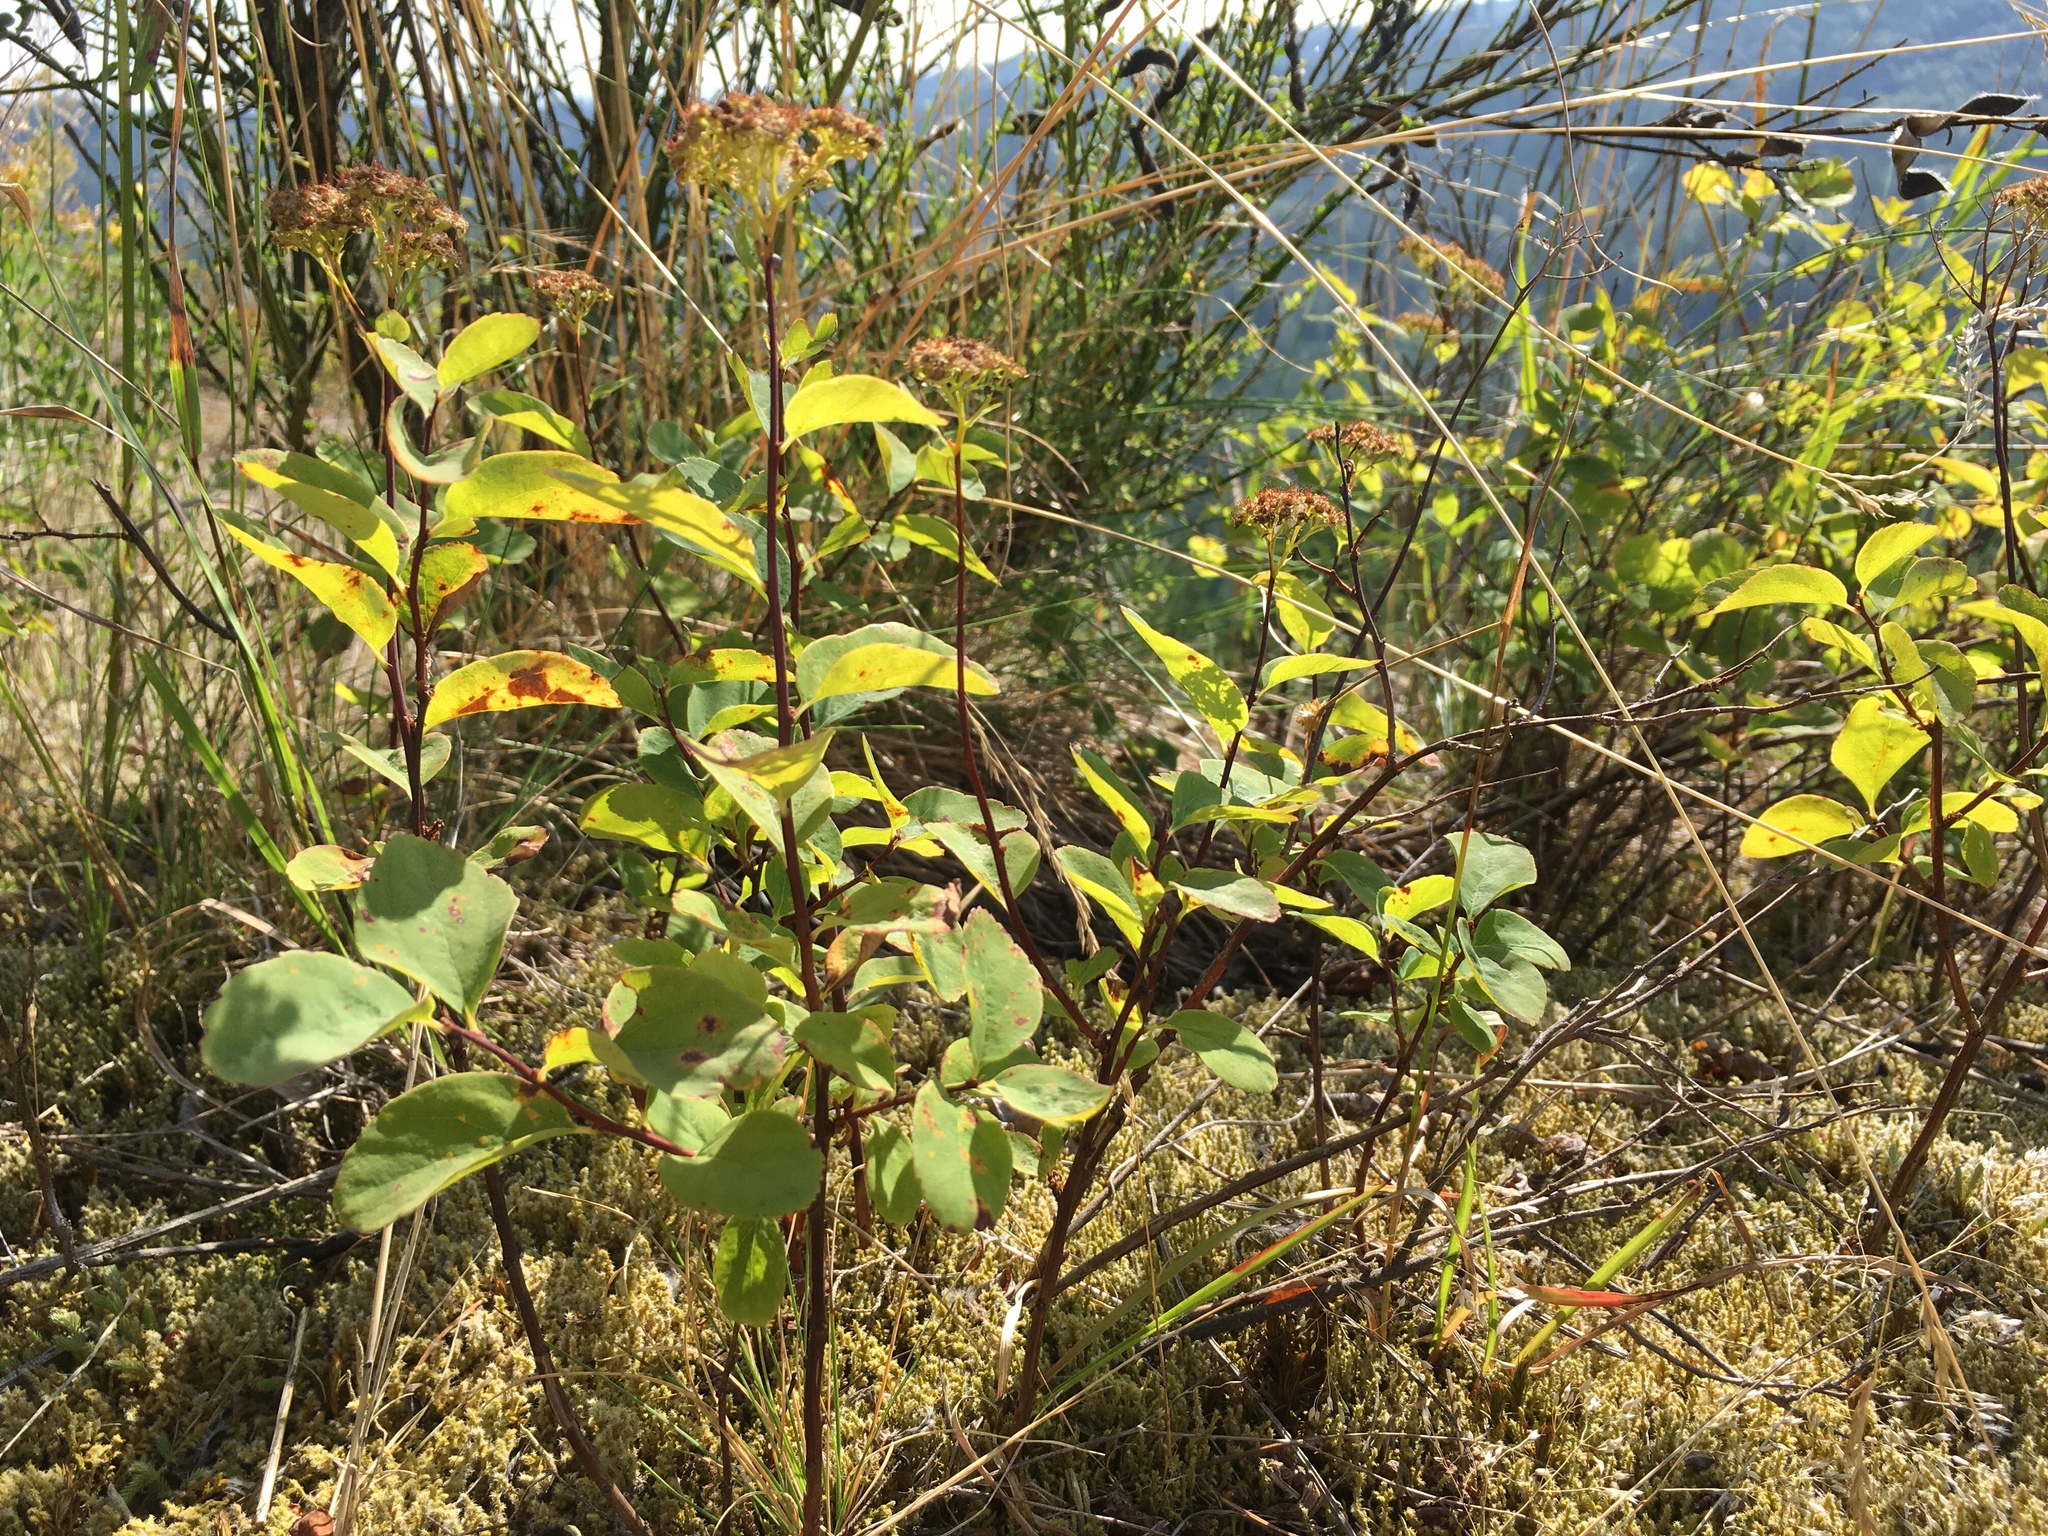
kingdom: Plantae
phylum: Tracheophyta
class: Magnoliopsida
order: Rosales
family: Rosaceae
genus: Spiraea
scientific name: Spiraea lucida
